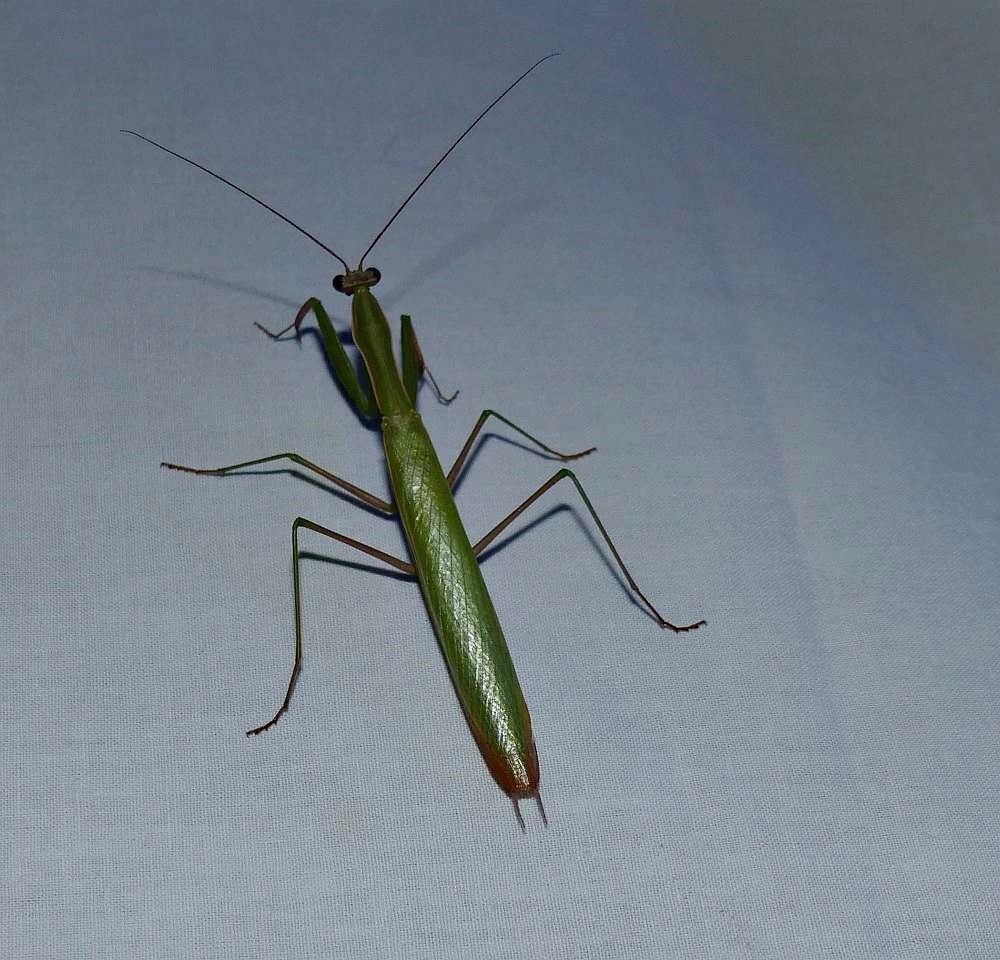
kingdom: Animalia
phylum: Arthropoda
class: Insecta
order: Mantodea
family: Mantidae
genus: Mantis
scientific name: Mantis religiosa
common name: Praying mantis
